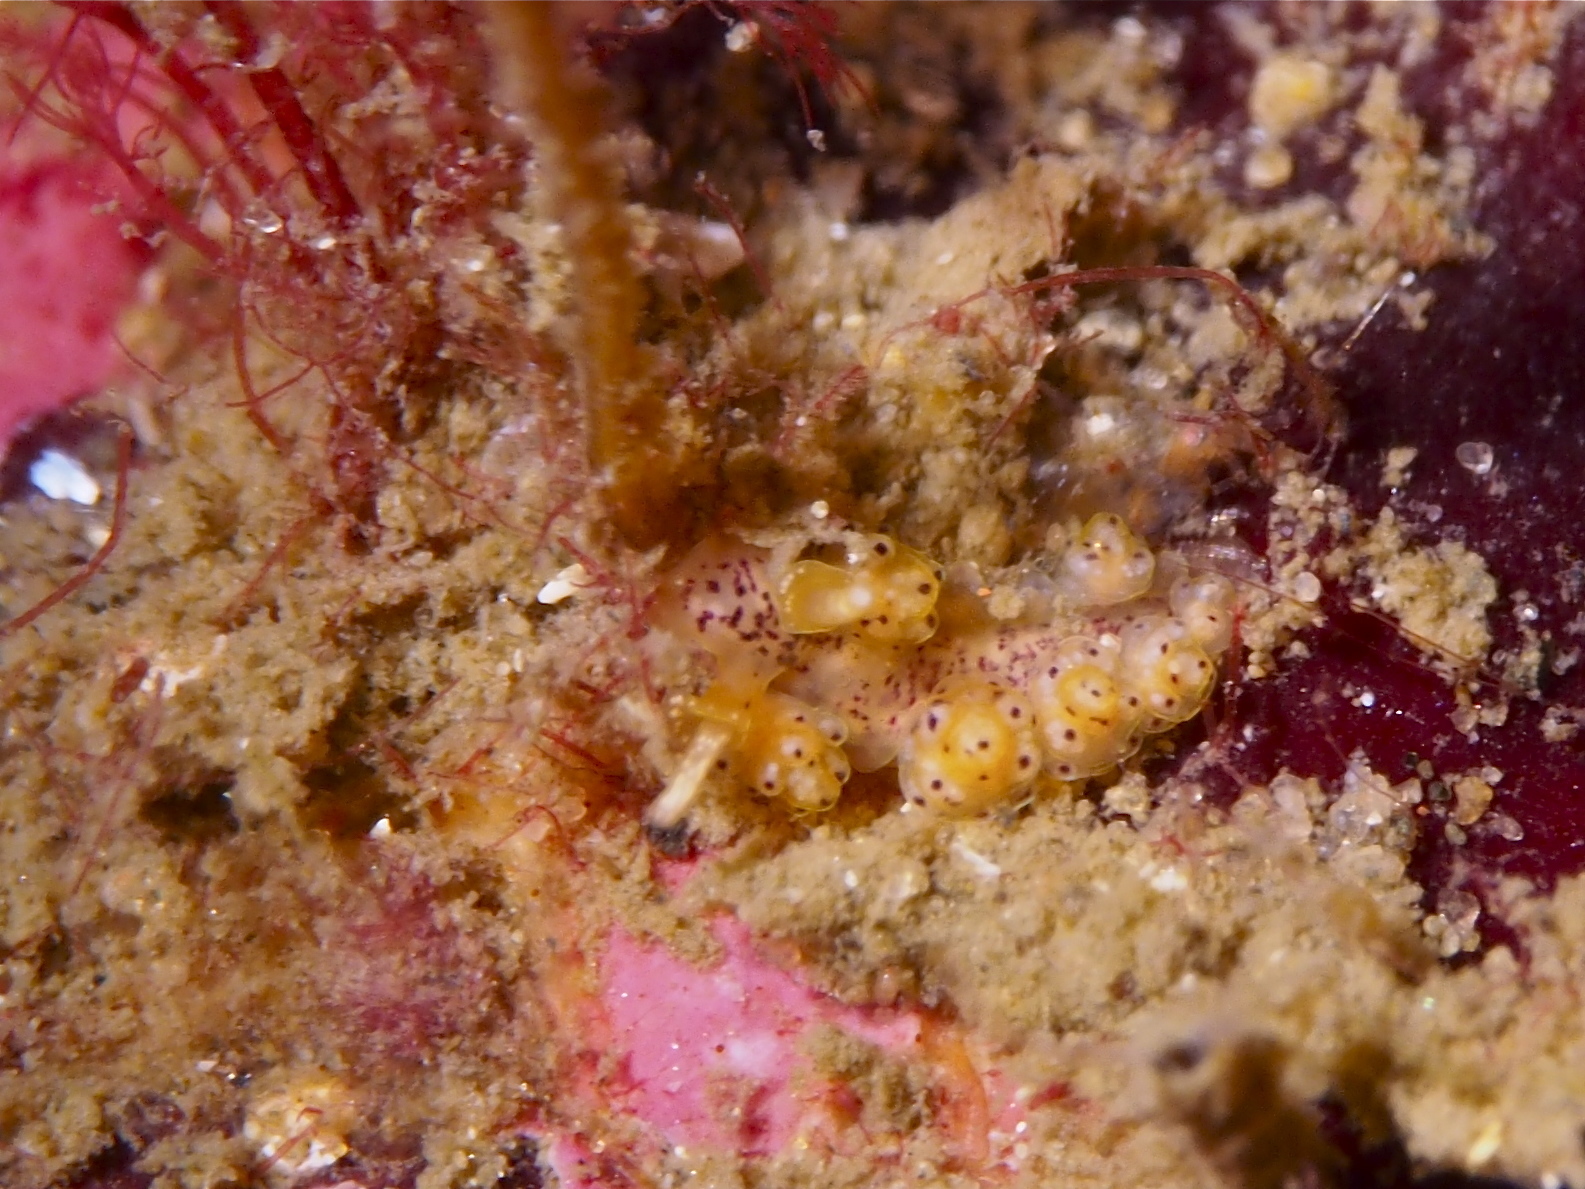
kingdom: Animalia
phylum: Mollusca
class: Gastropoda
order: Nudibranchia
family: Dotidae
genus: Doto
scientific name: Doto dunnei
